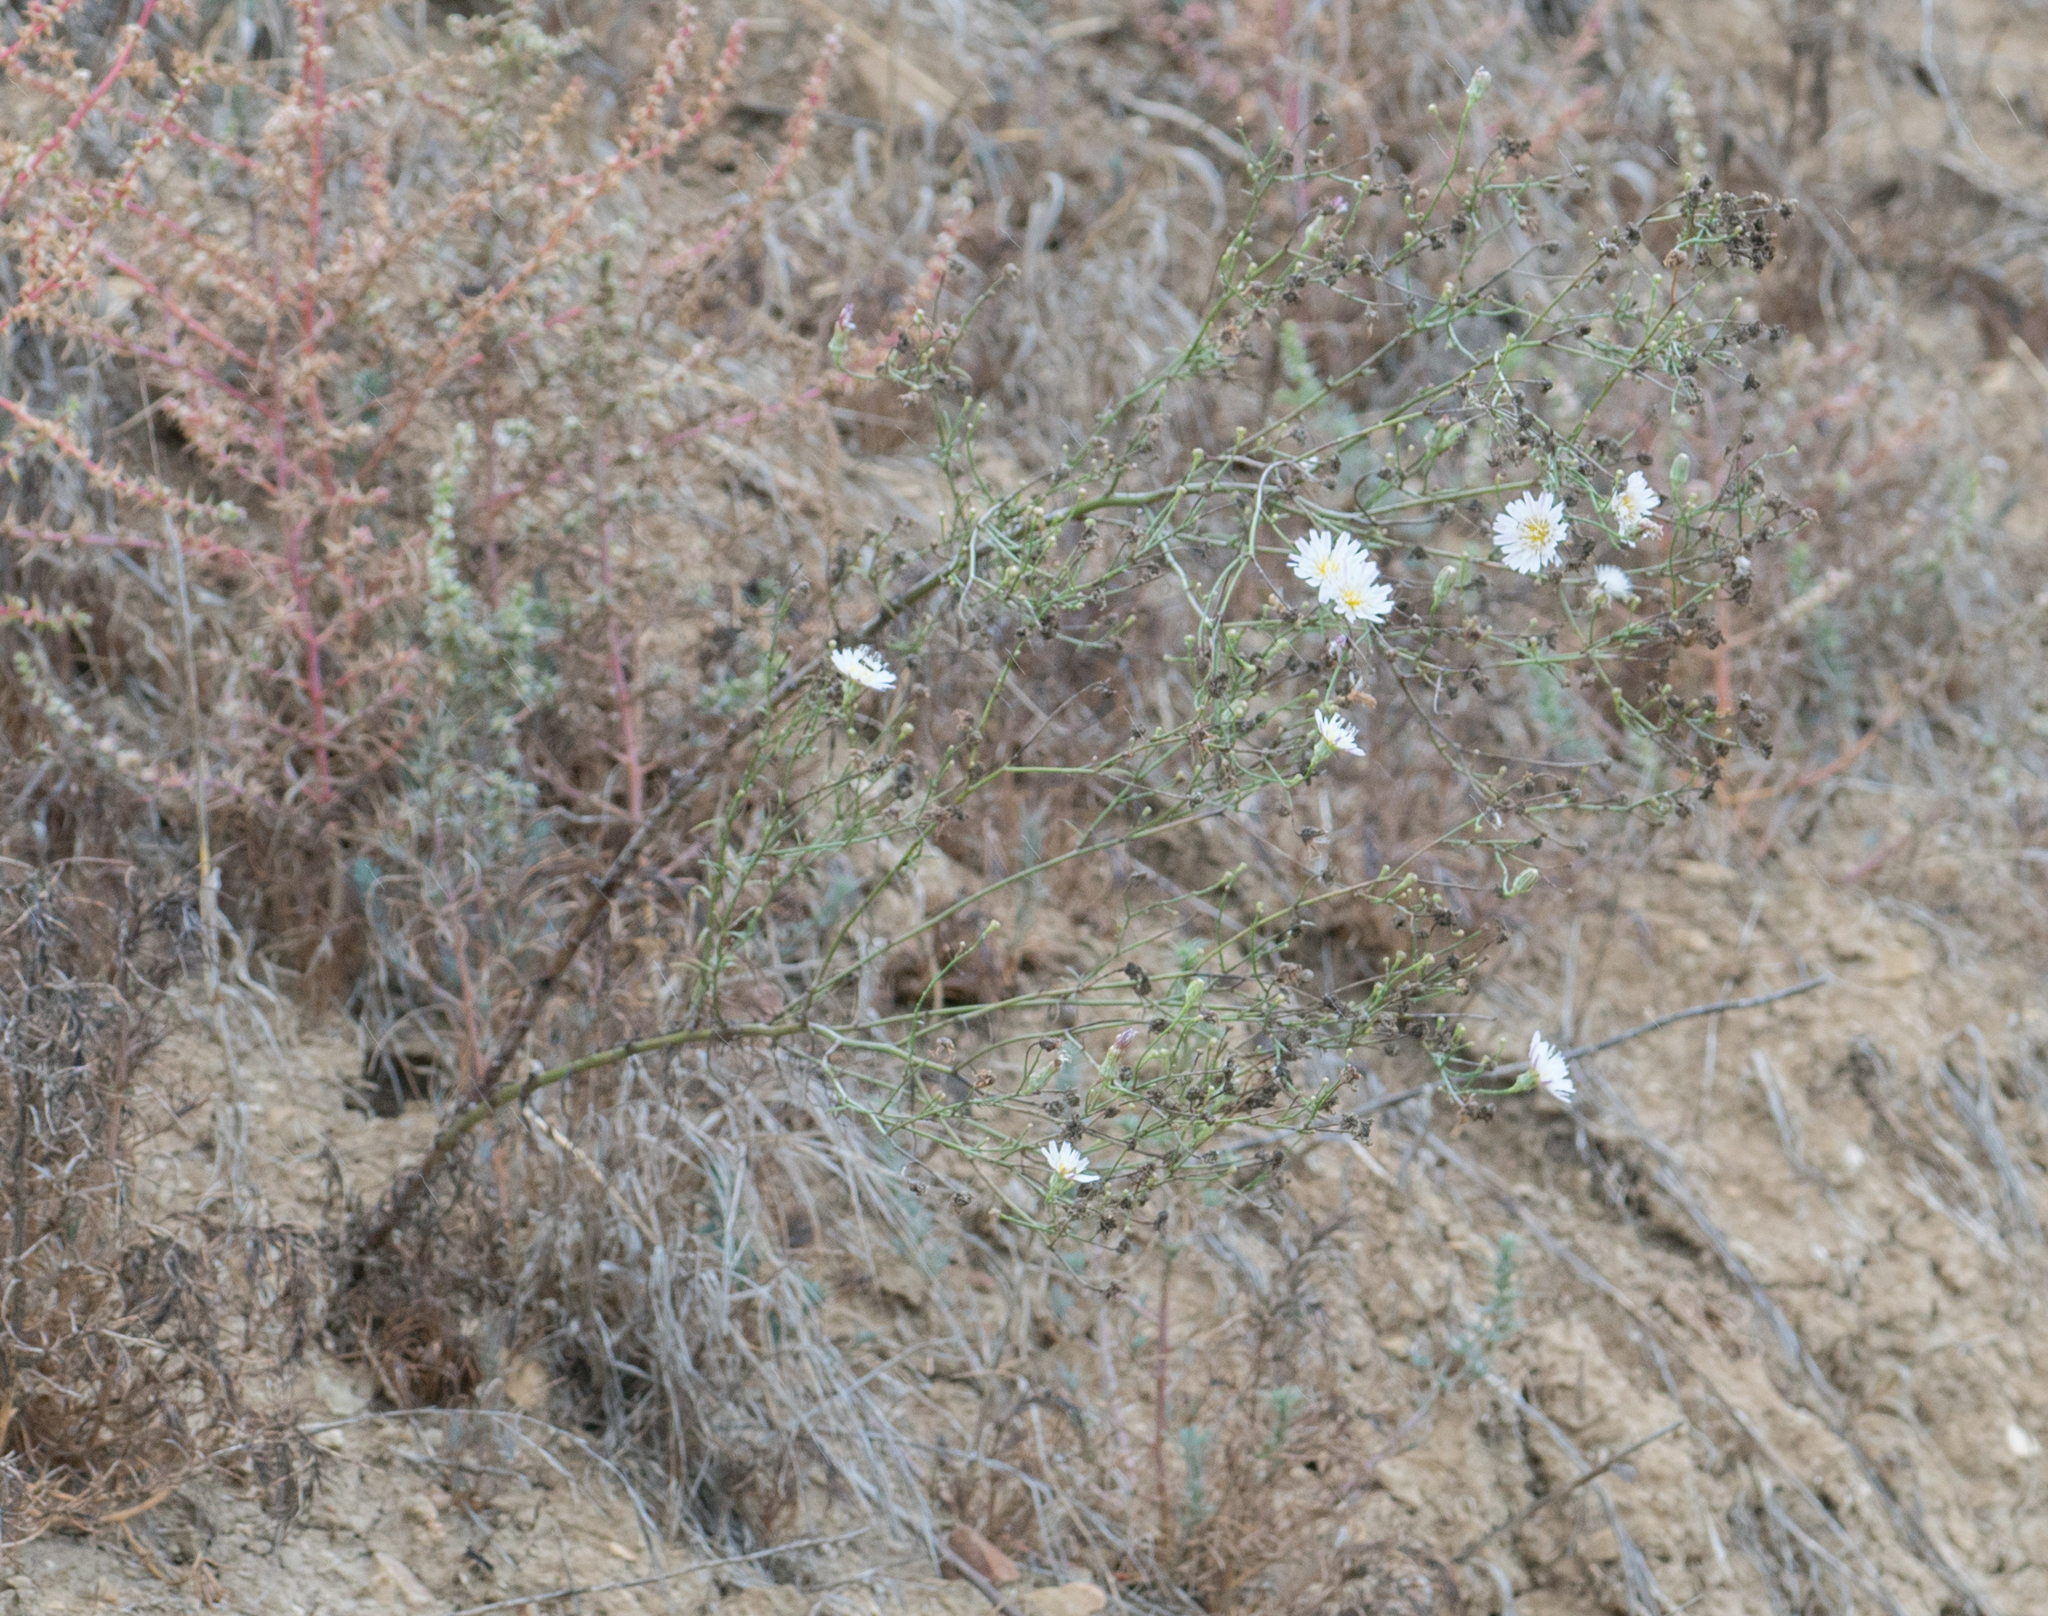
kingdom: Plantae
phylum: Tracheophyta
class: Magnoliopsida
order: Asterales
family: Asteraceae
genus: Malacothrix
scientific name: Malacothrix saxatilis
